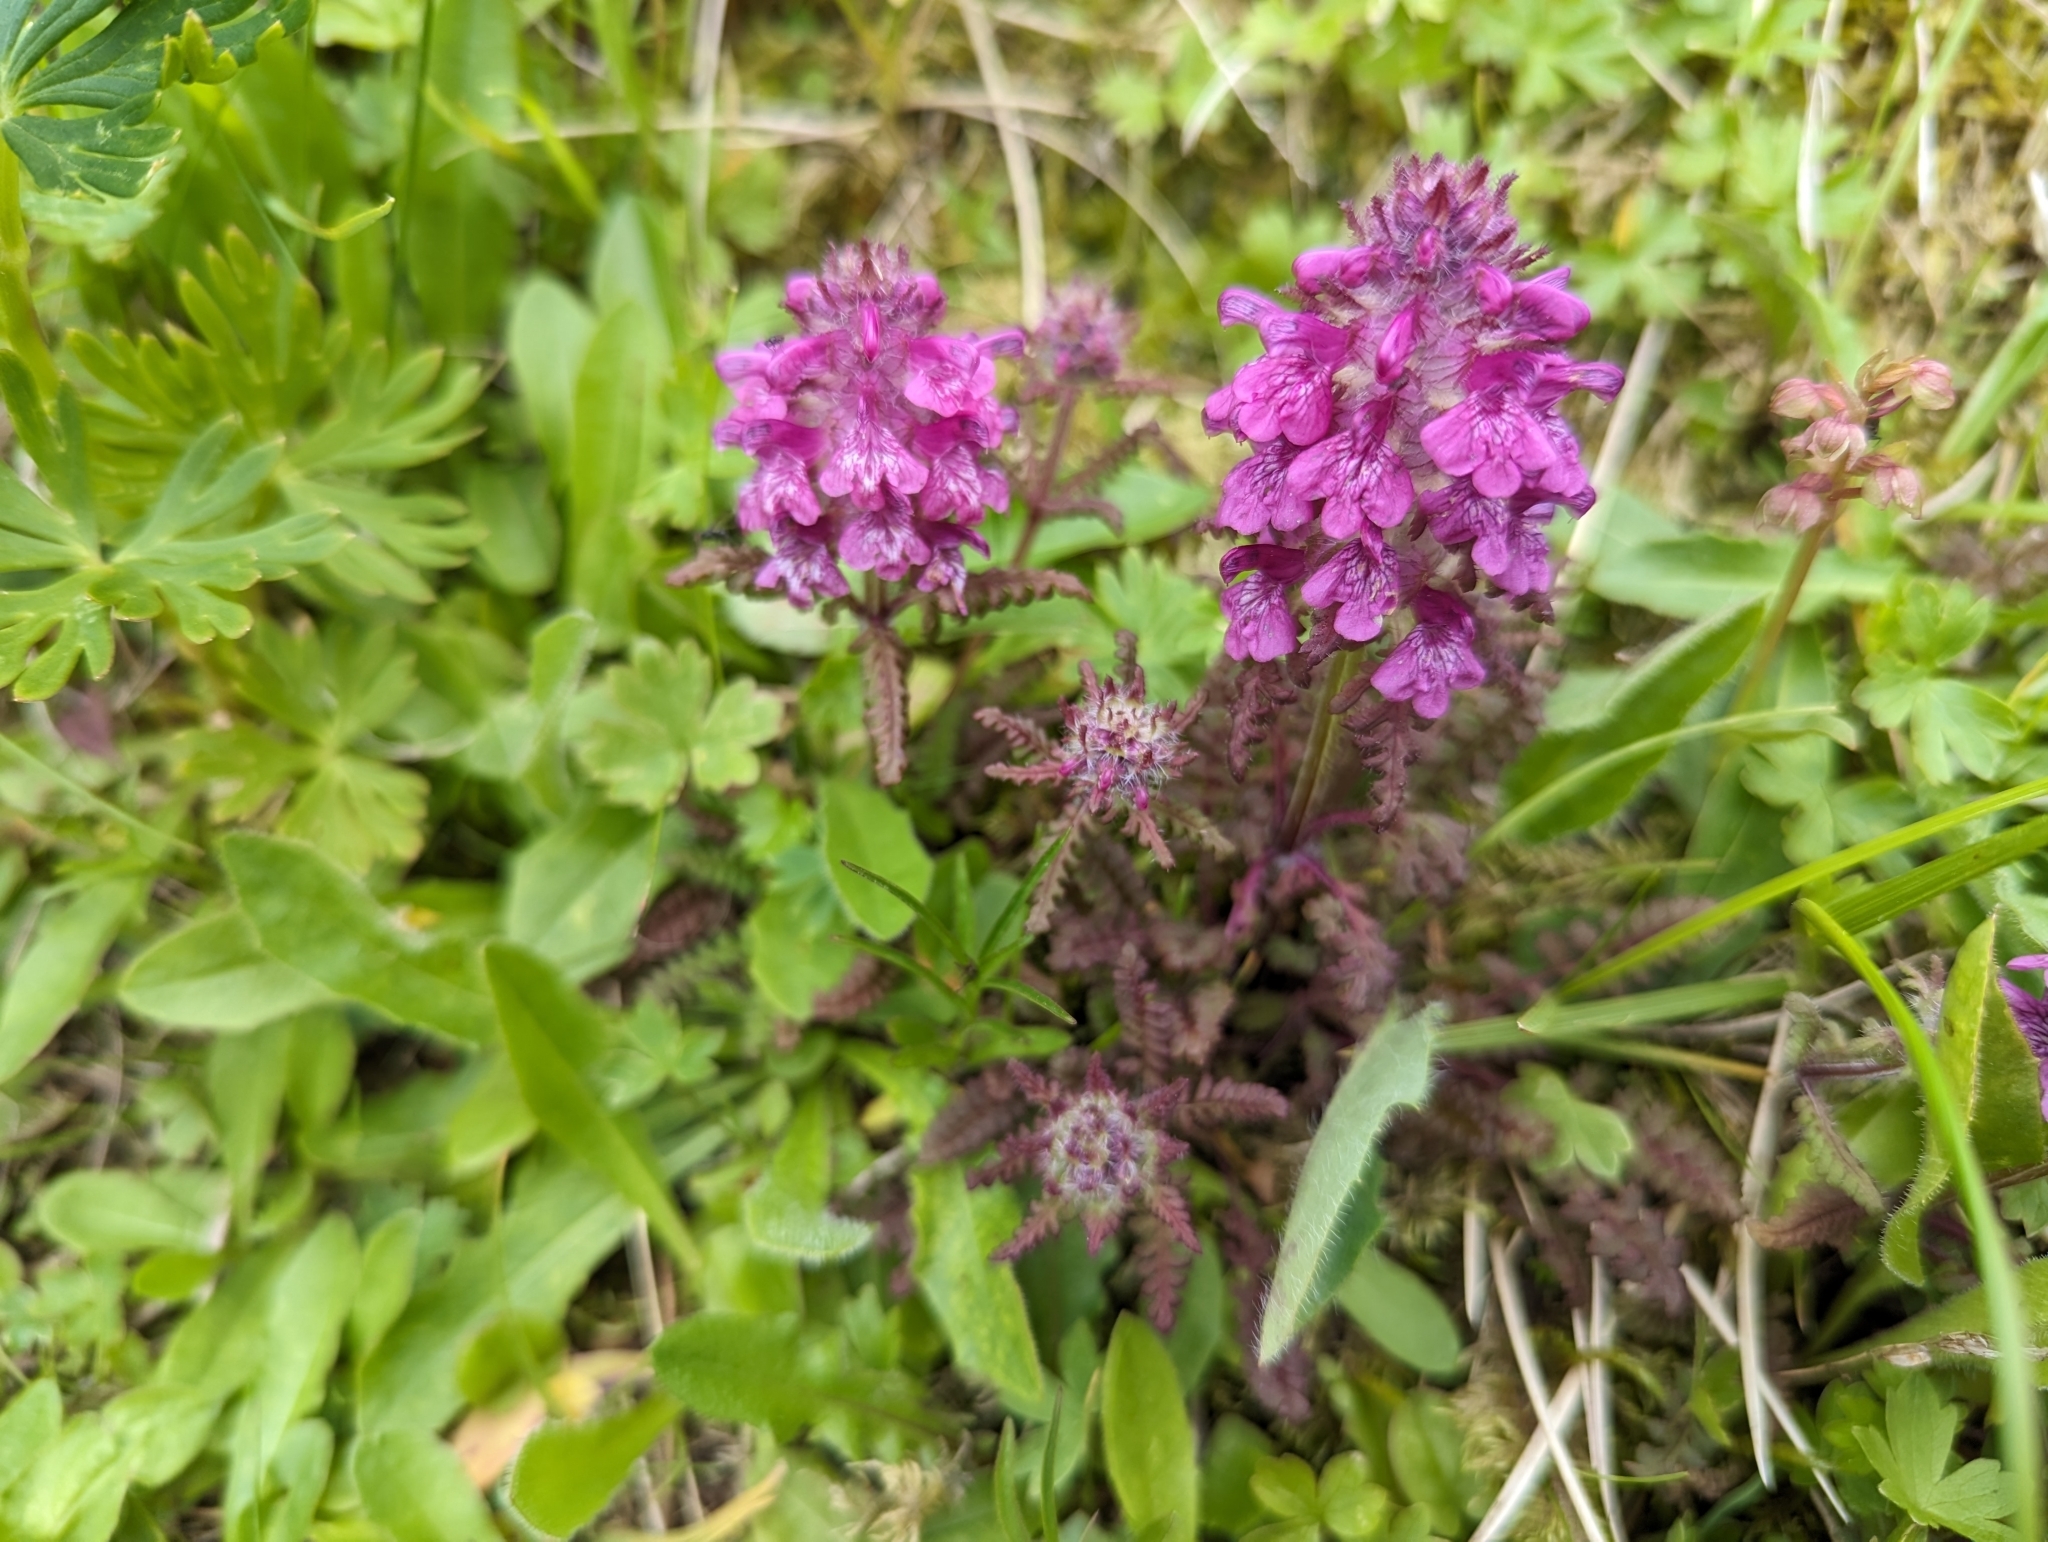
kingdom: Plantae
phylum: Tracheophyta
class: Magnoliopsida
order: Lamiales
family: Orobanchaceae
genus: Pedicularis
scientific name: Pedicularis verticillata
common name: Whorled lousewort
